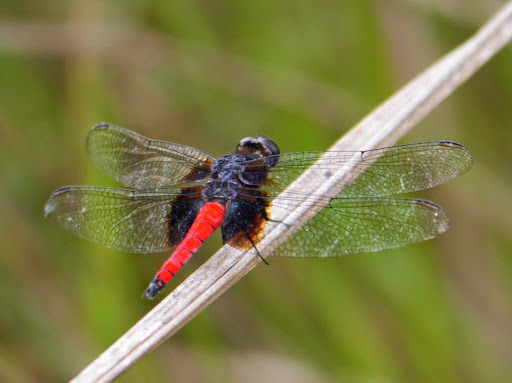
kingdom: Animalia
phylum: Arthropoda
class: Insecta
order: Odonata
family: Libellulidae
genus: Hadrothemis
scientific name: Hadrothemis defecta
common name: Scarlet jungleskimmer
